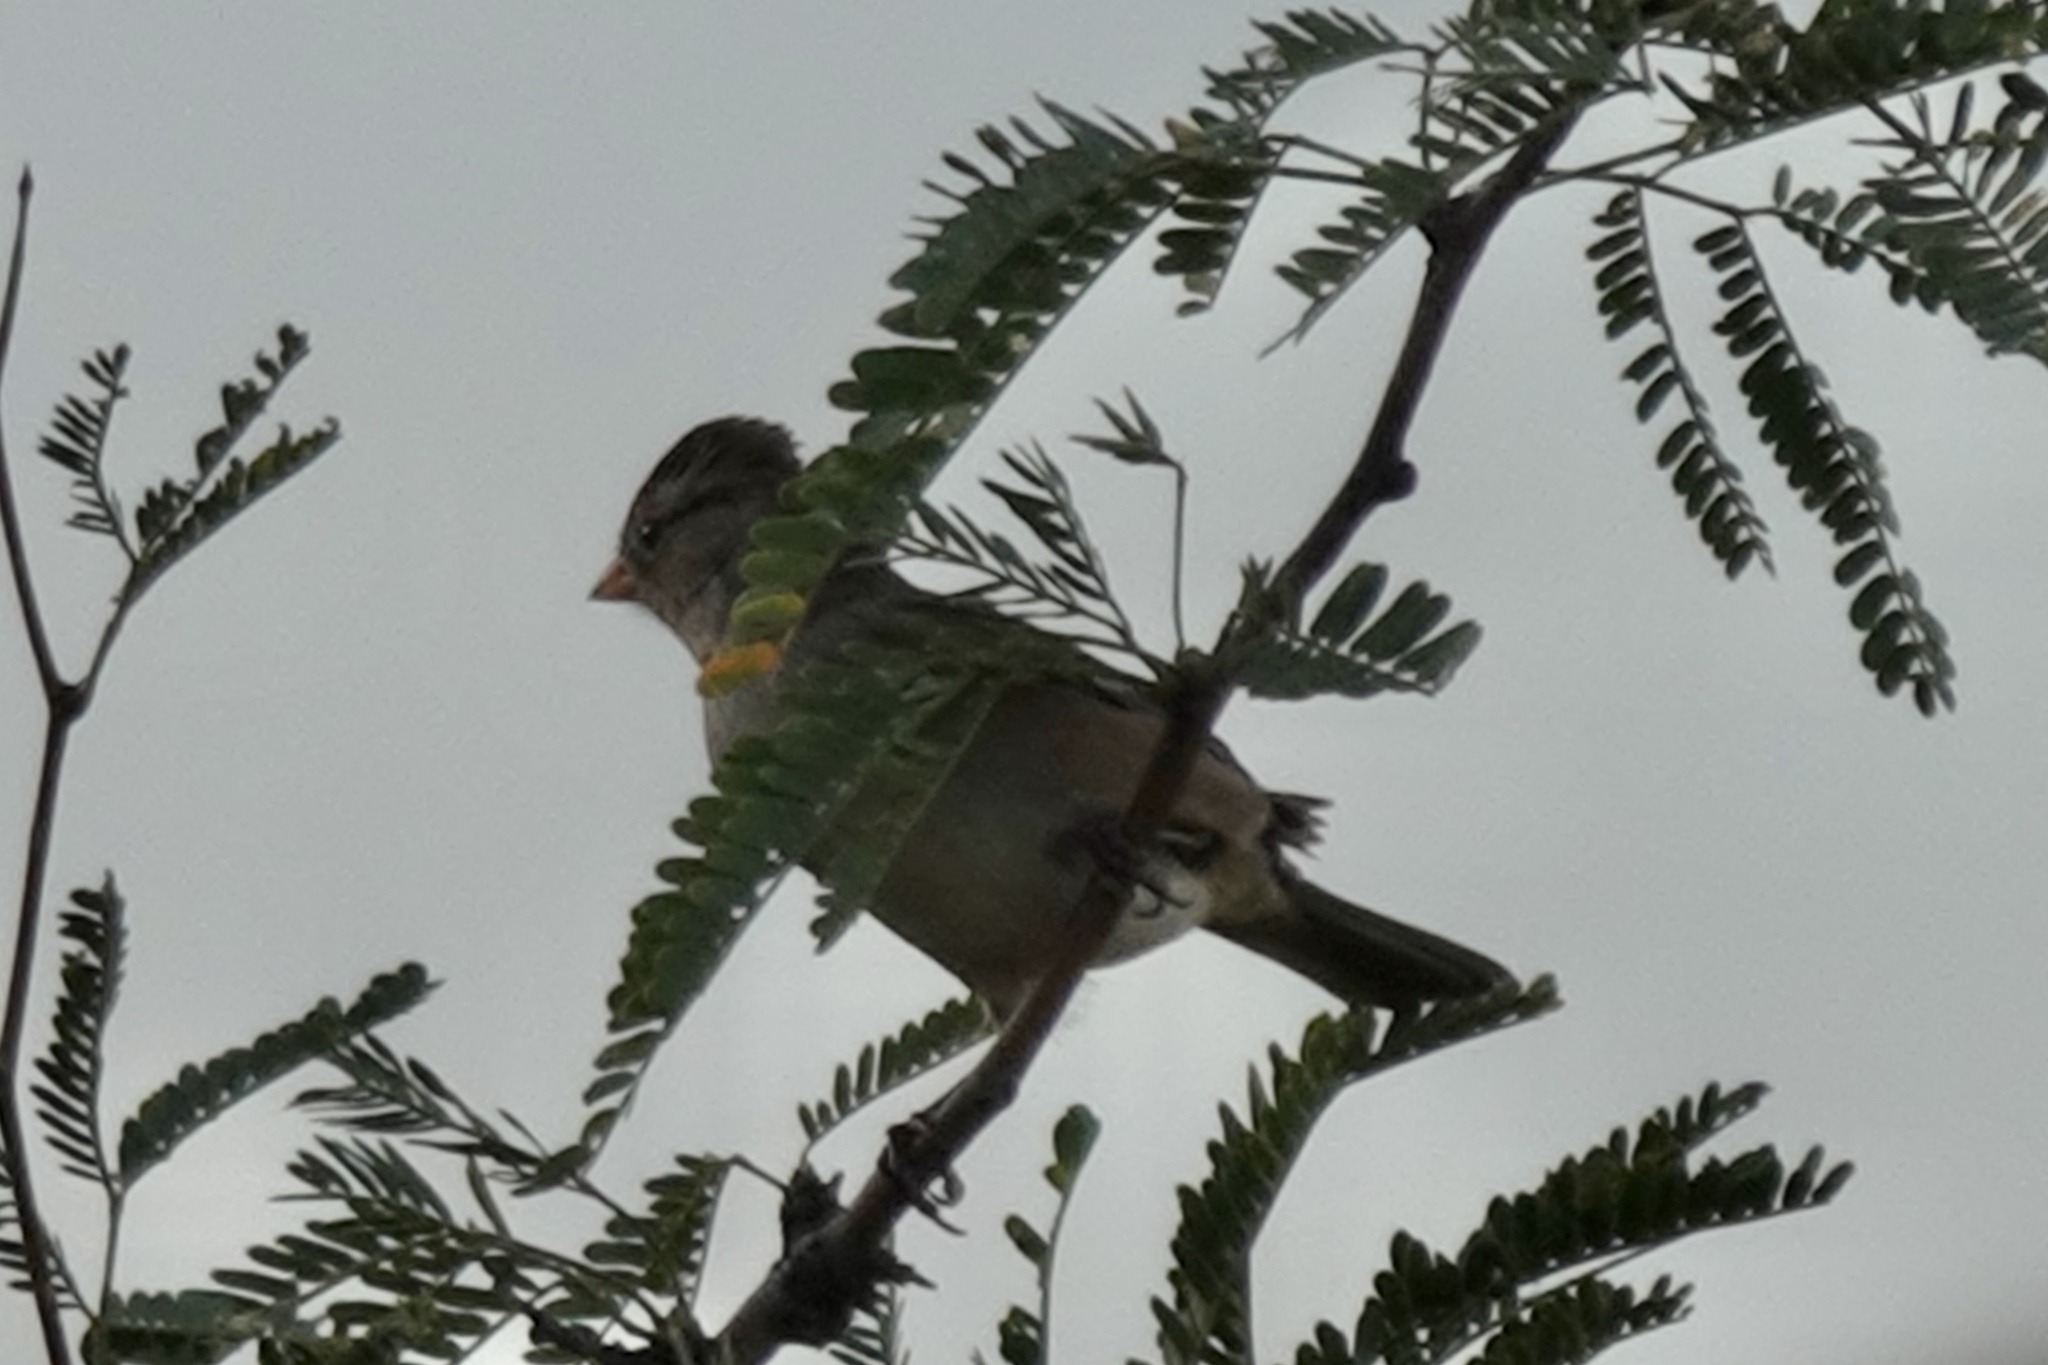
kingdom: Animalia
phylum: Chordata
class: Aves
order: Passeriformes
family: Passerellidae
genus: Peucaea
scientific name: Peucaea carpalis
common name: Rufous-winged sparrow
